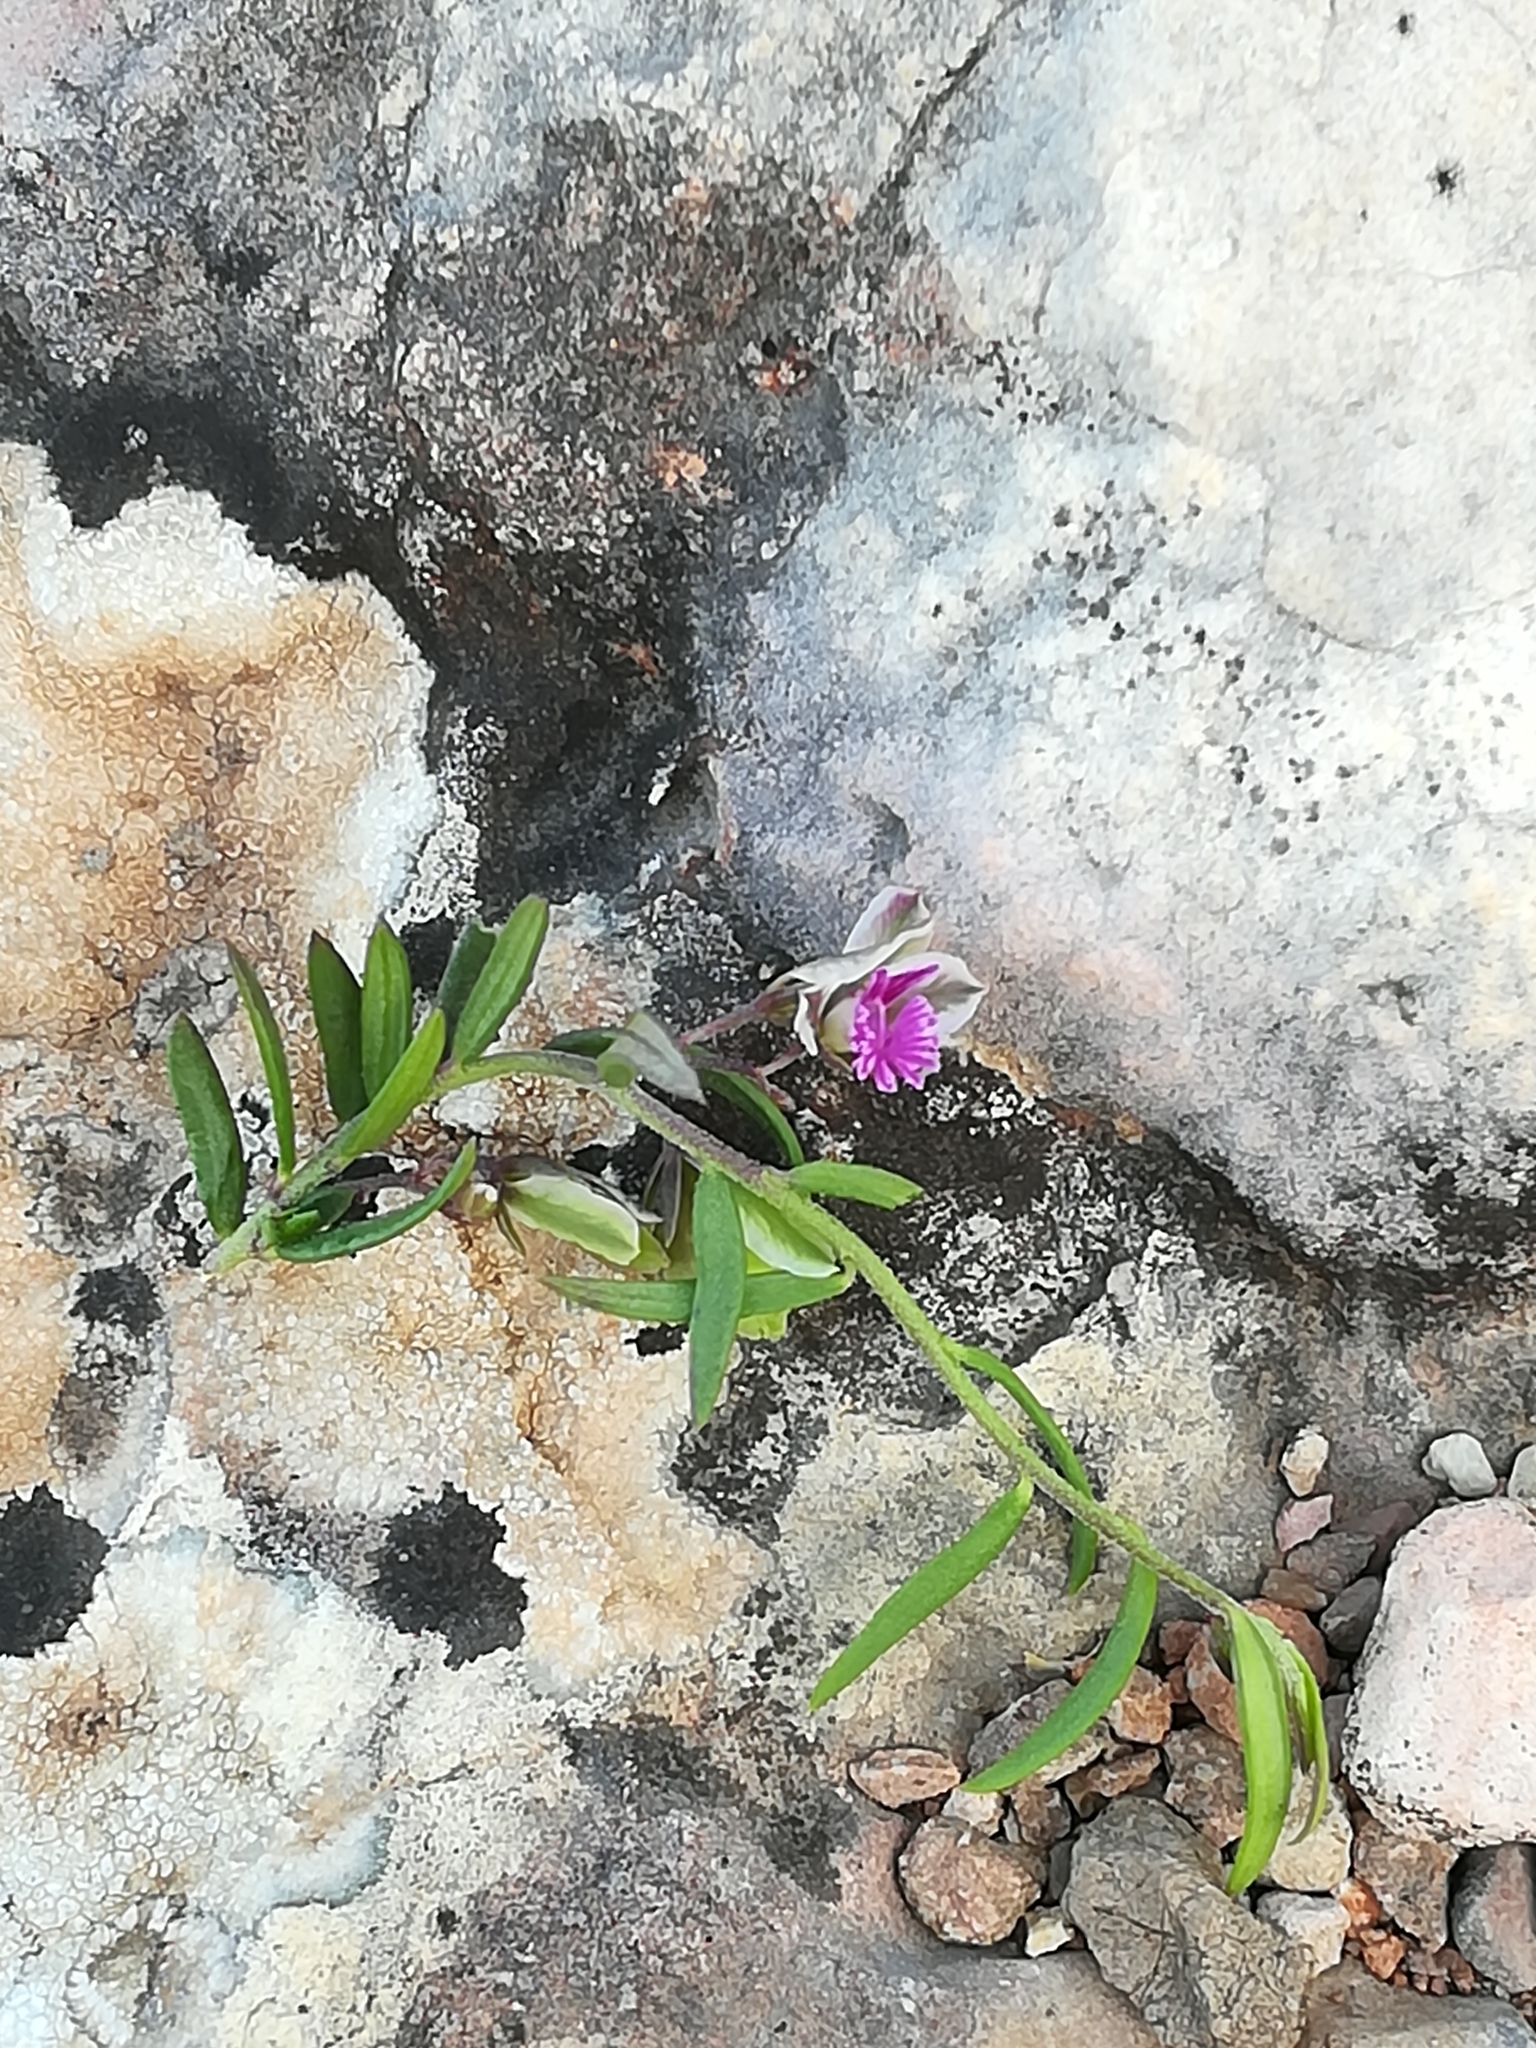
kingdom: Plantae
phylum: Tracheophyta
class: Magnoliopsida
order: Fabales
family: Polygalaceae
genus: Polygala
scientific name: Polygala rupestris
